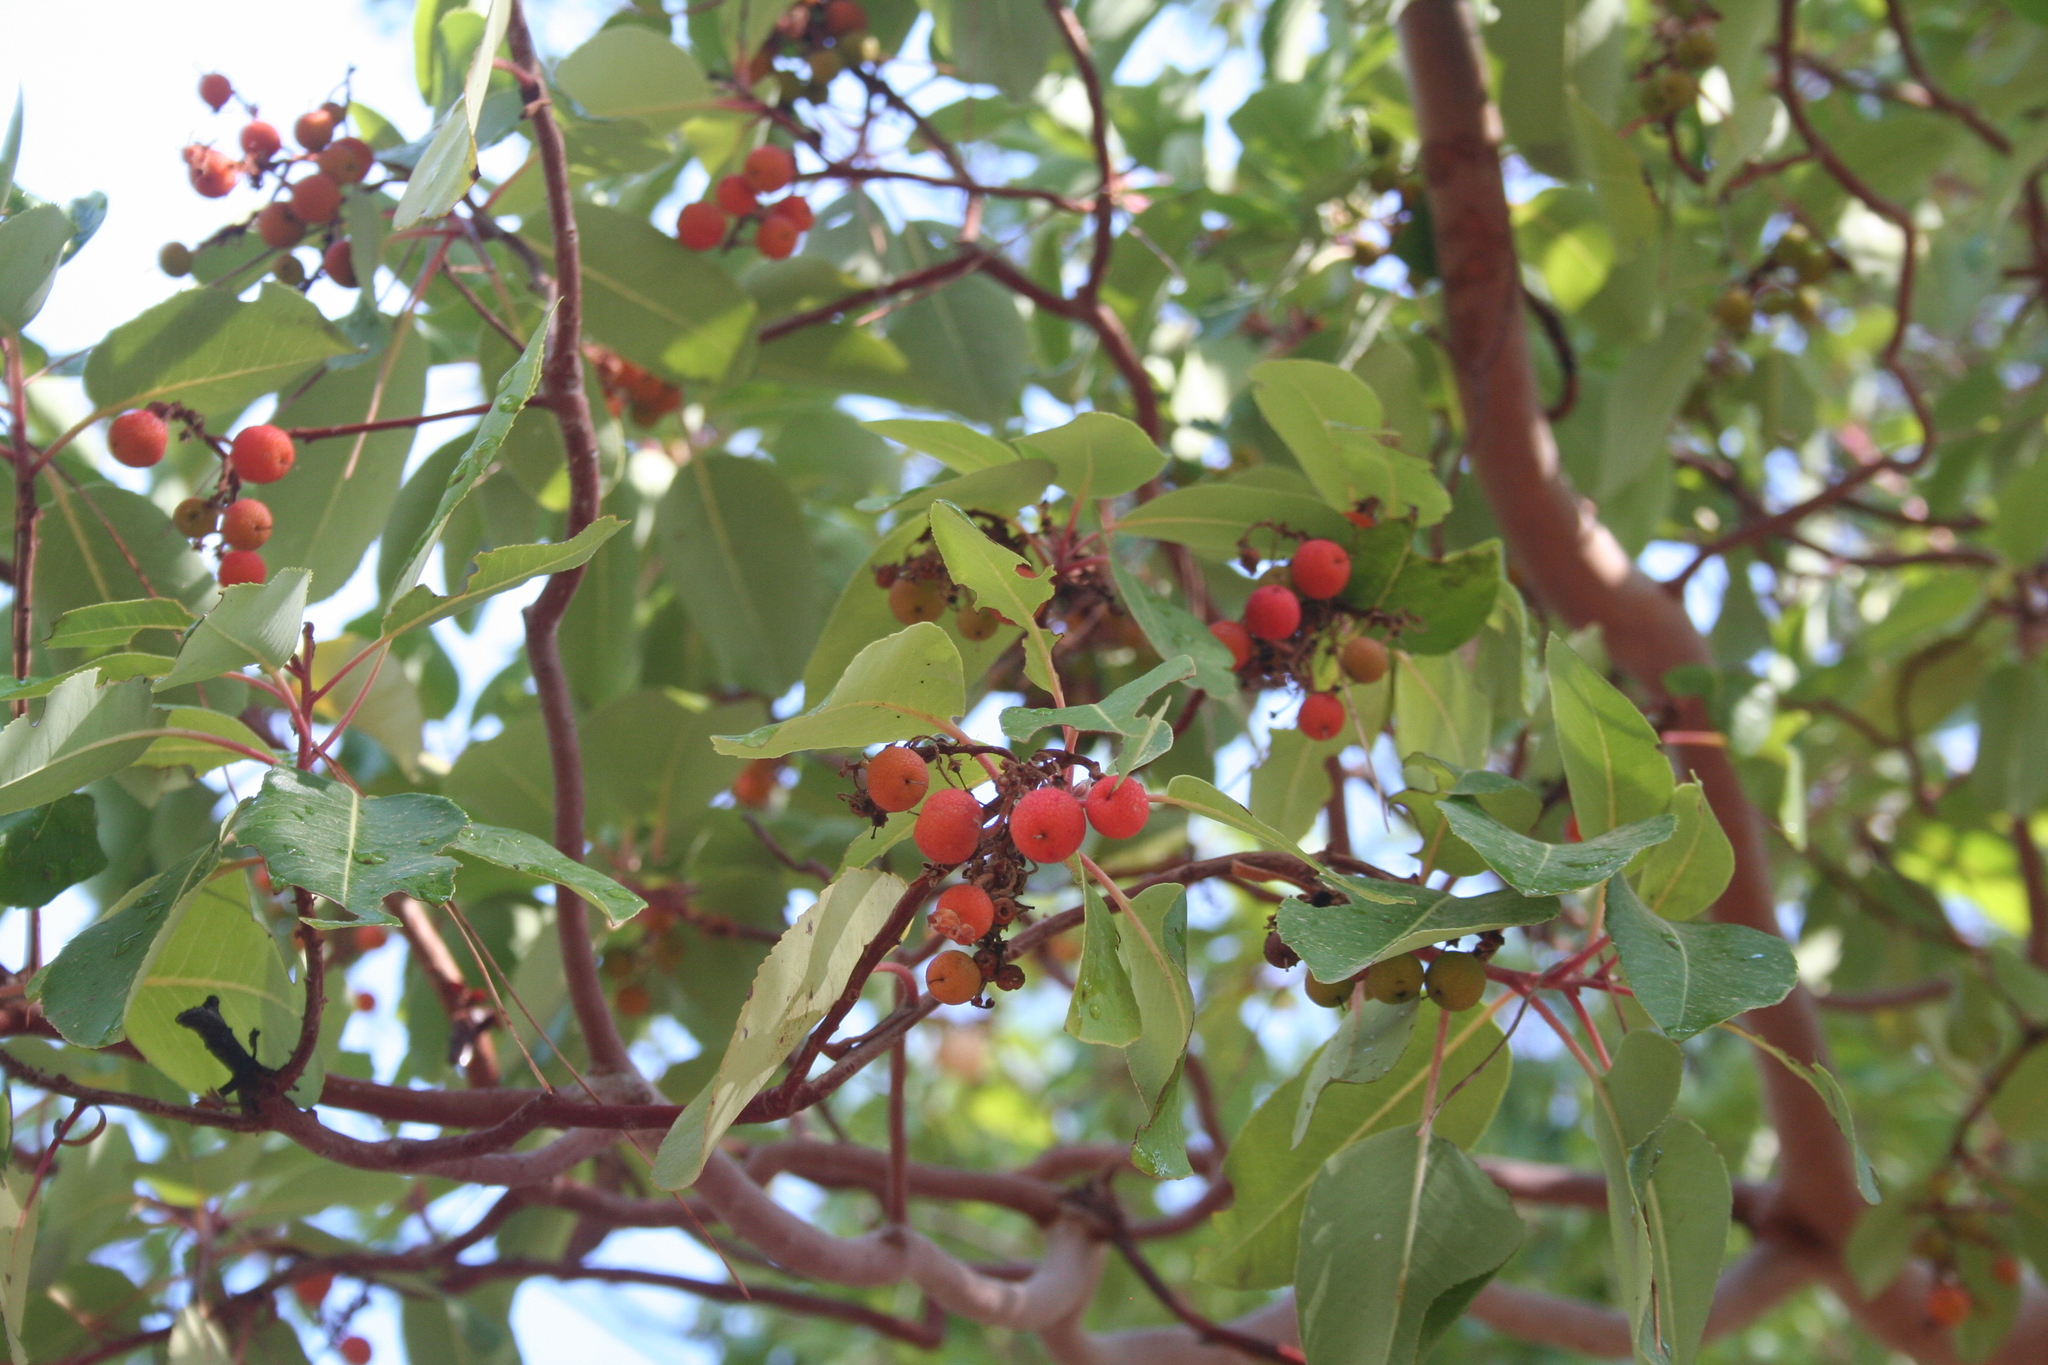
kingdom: Plantae
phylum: Tracheophyta
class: Magnoliopsida
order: Ericales
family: Ericaceae
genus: Arbutus
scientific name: Arbutus andrachne
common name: Greek strawberry tree
